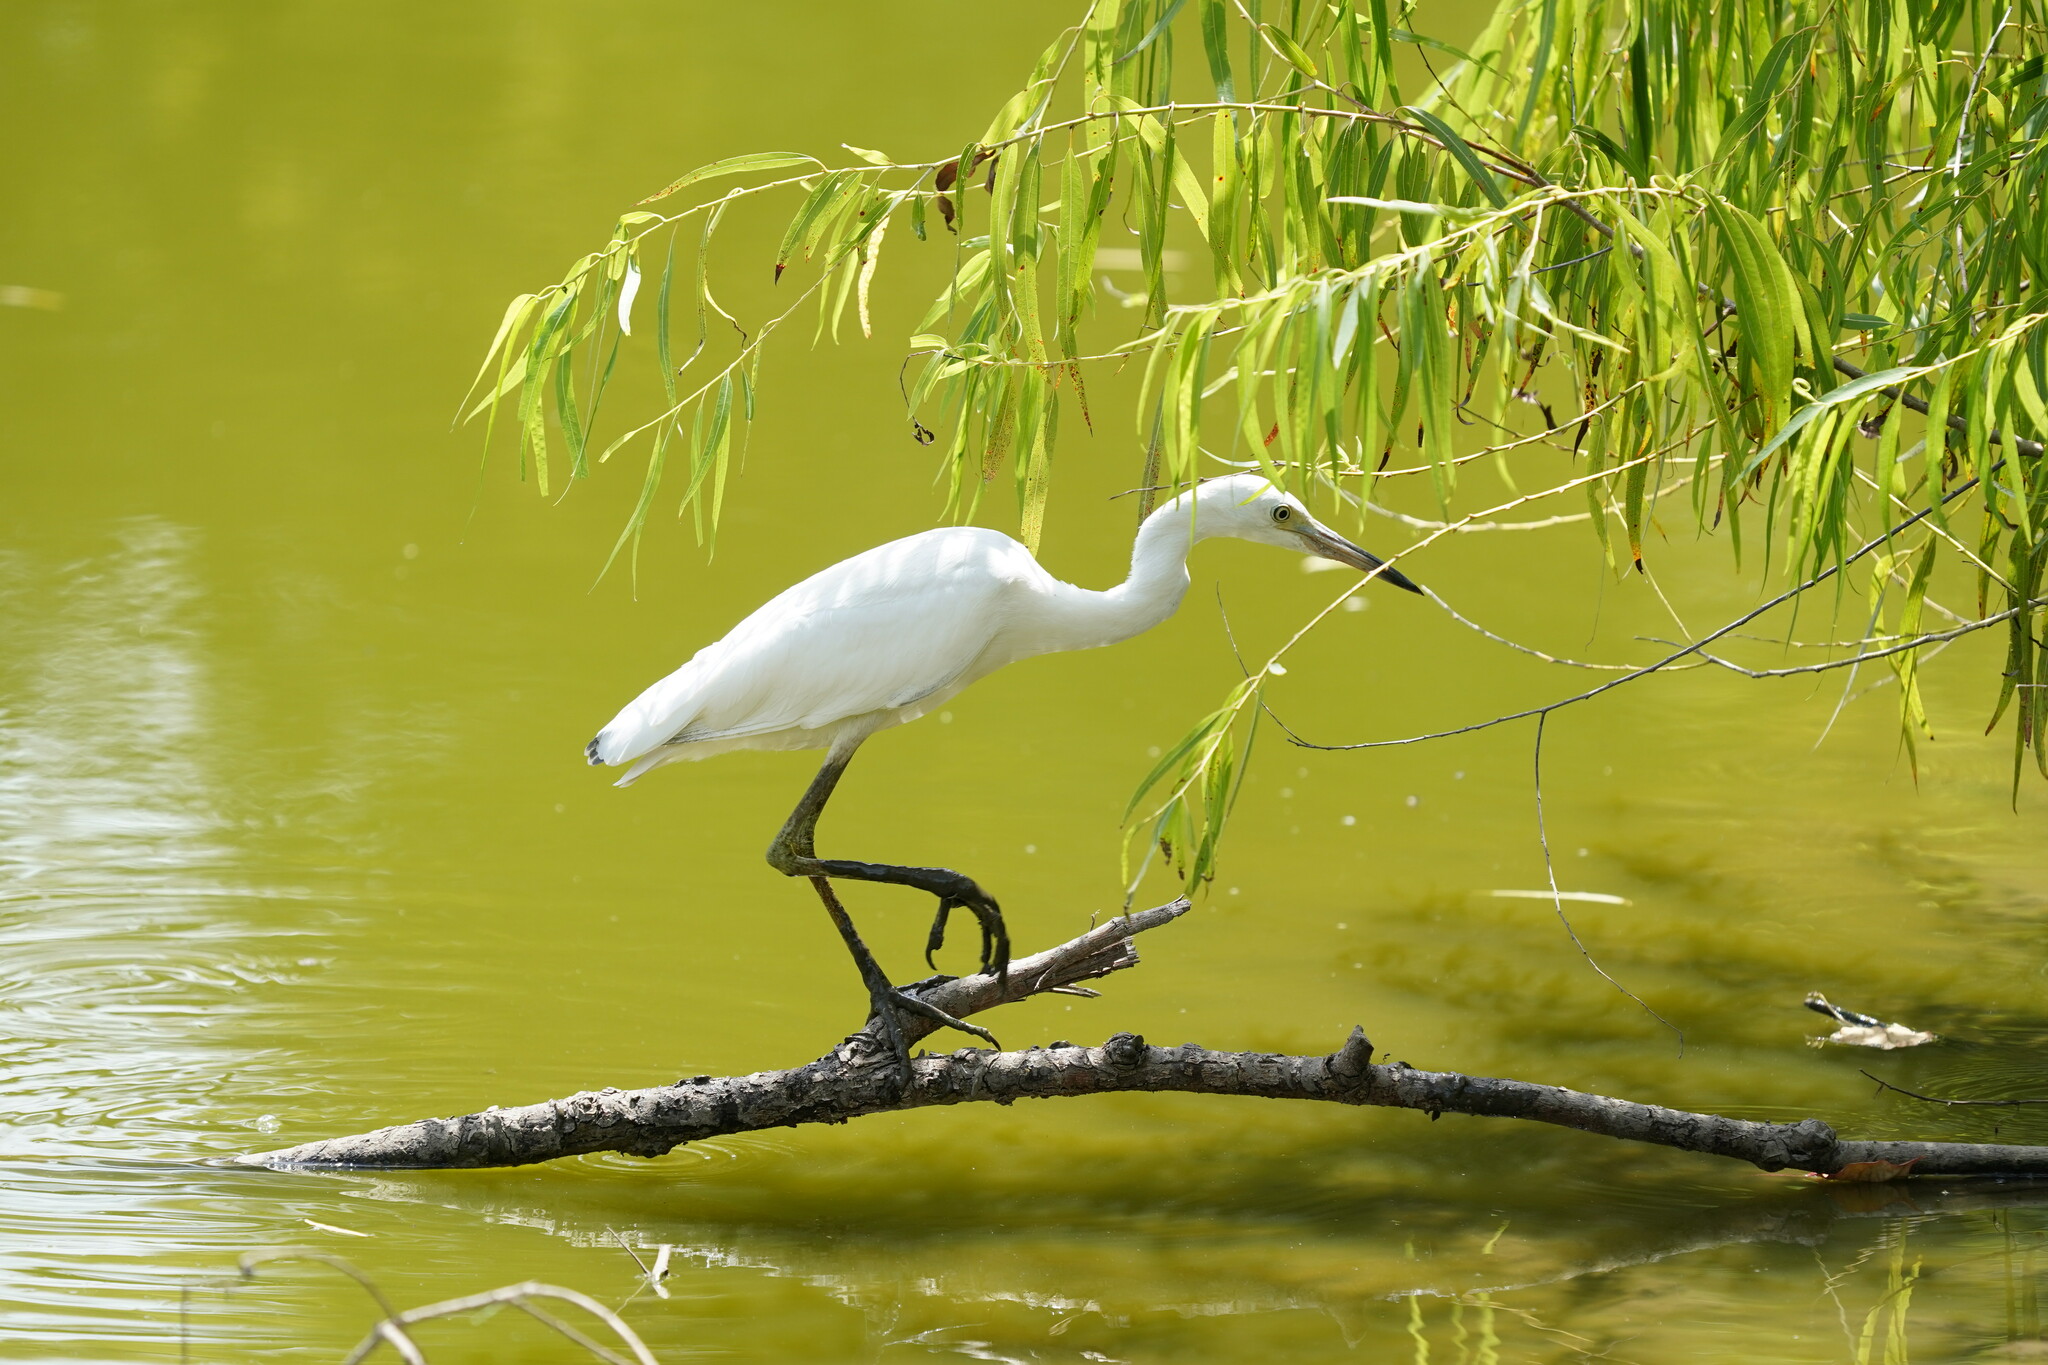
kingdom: Animalia
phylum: Chordata
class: Aves
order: Pelecaniformes
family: Ardeidae
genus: Egretta
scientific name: Egretta caerulea
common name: Little blue heron
